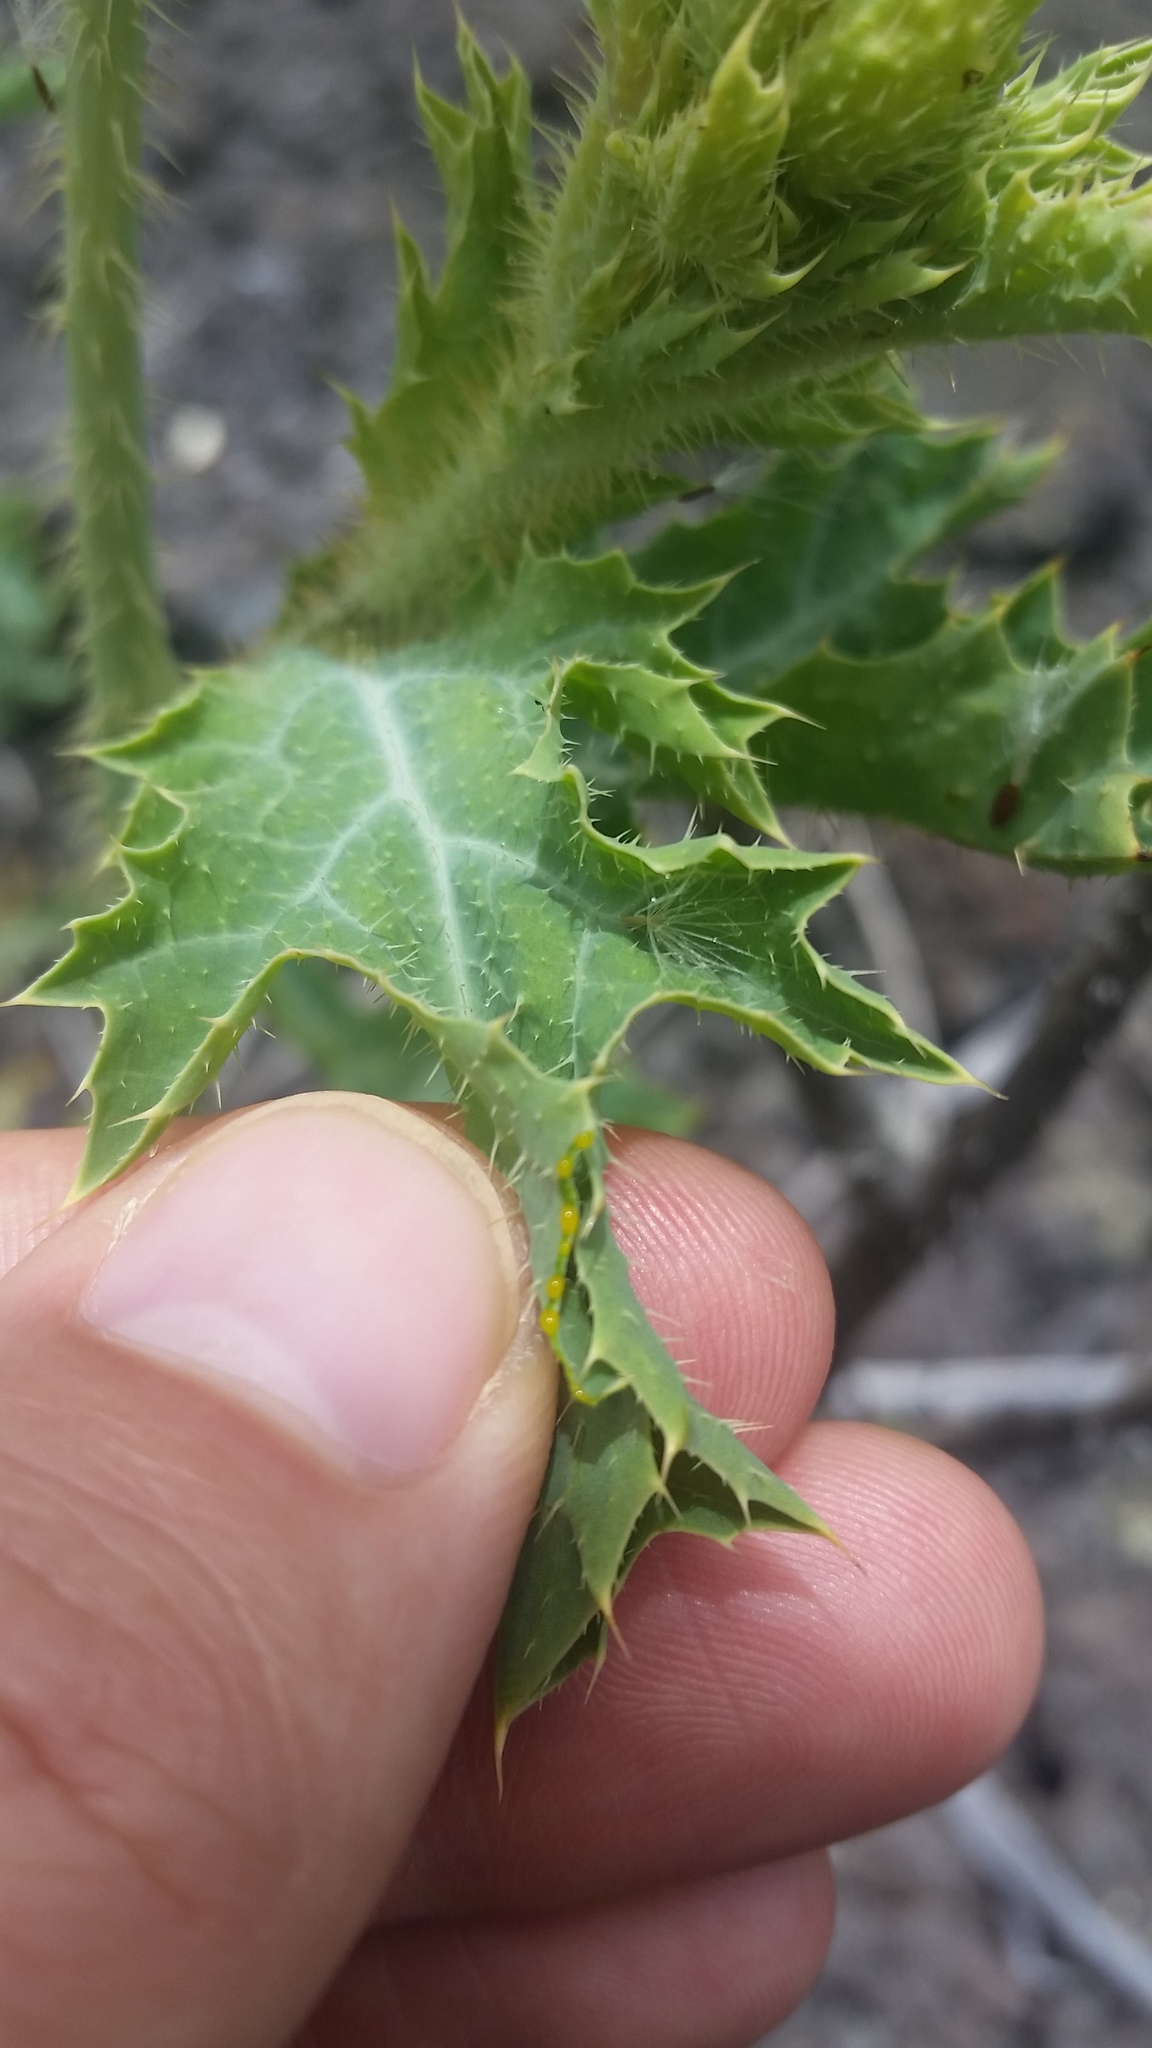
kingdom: Plantae
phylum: Tracheophyta
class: Magnoliopsida
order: Ranunculales
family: Papaveraceae
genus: Argemone
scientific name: Argemone glauca
